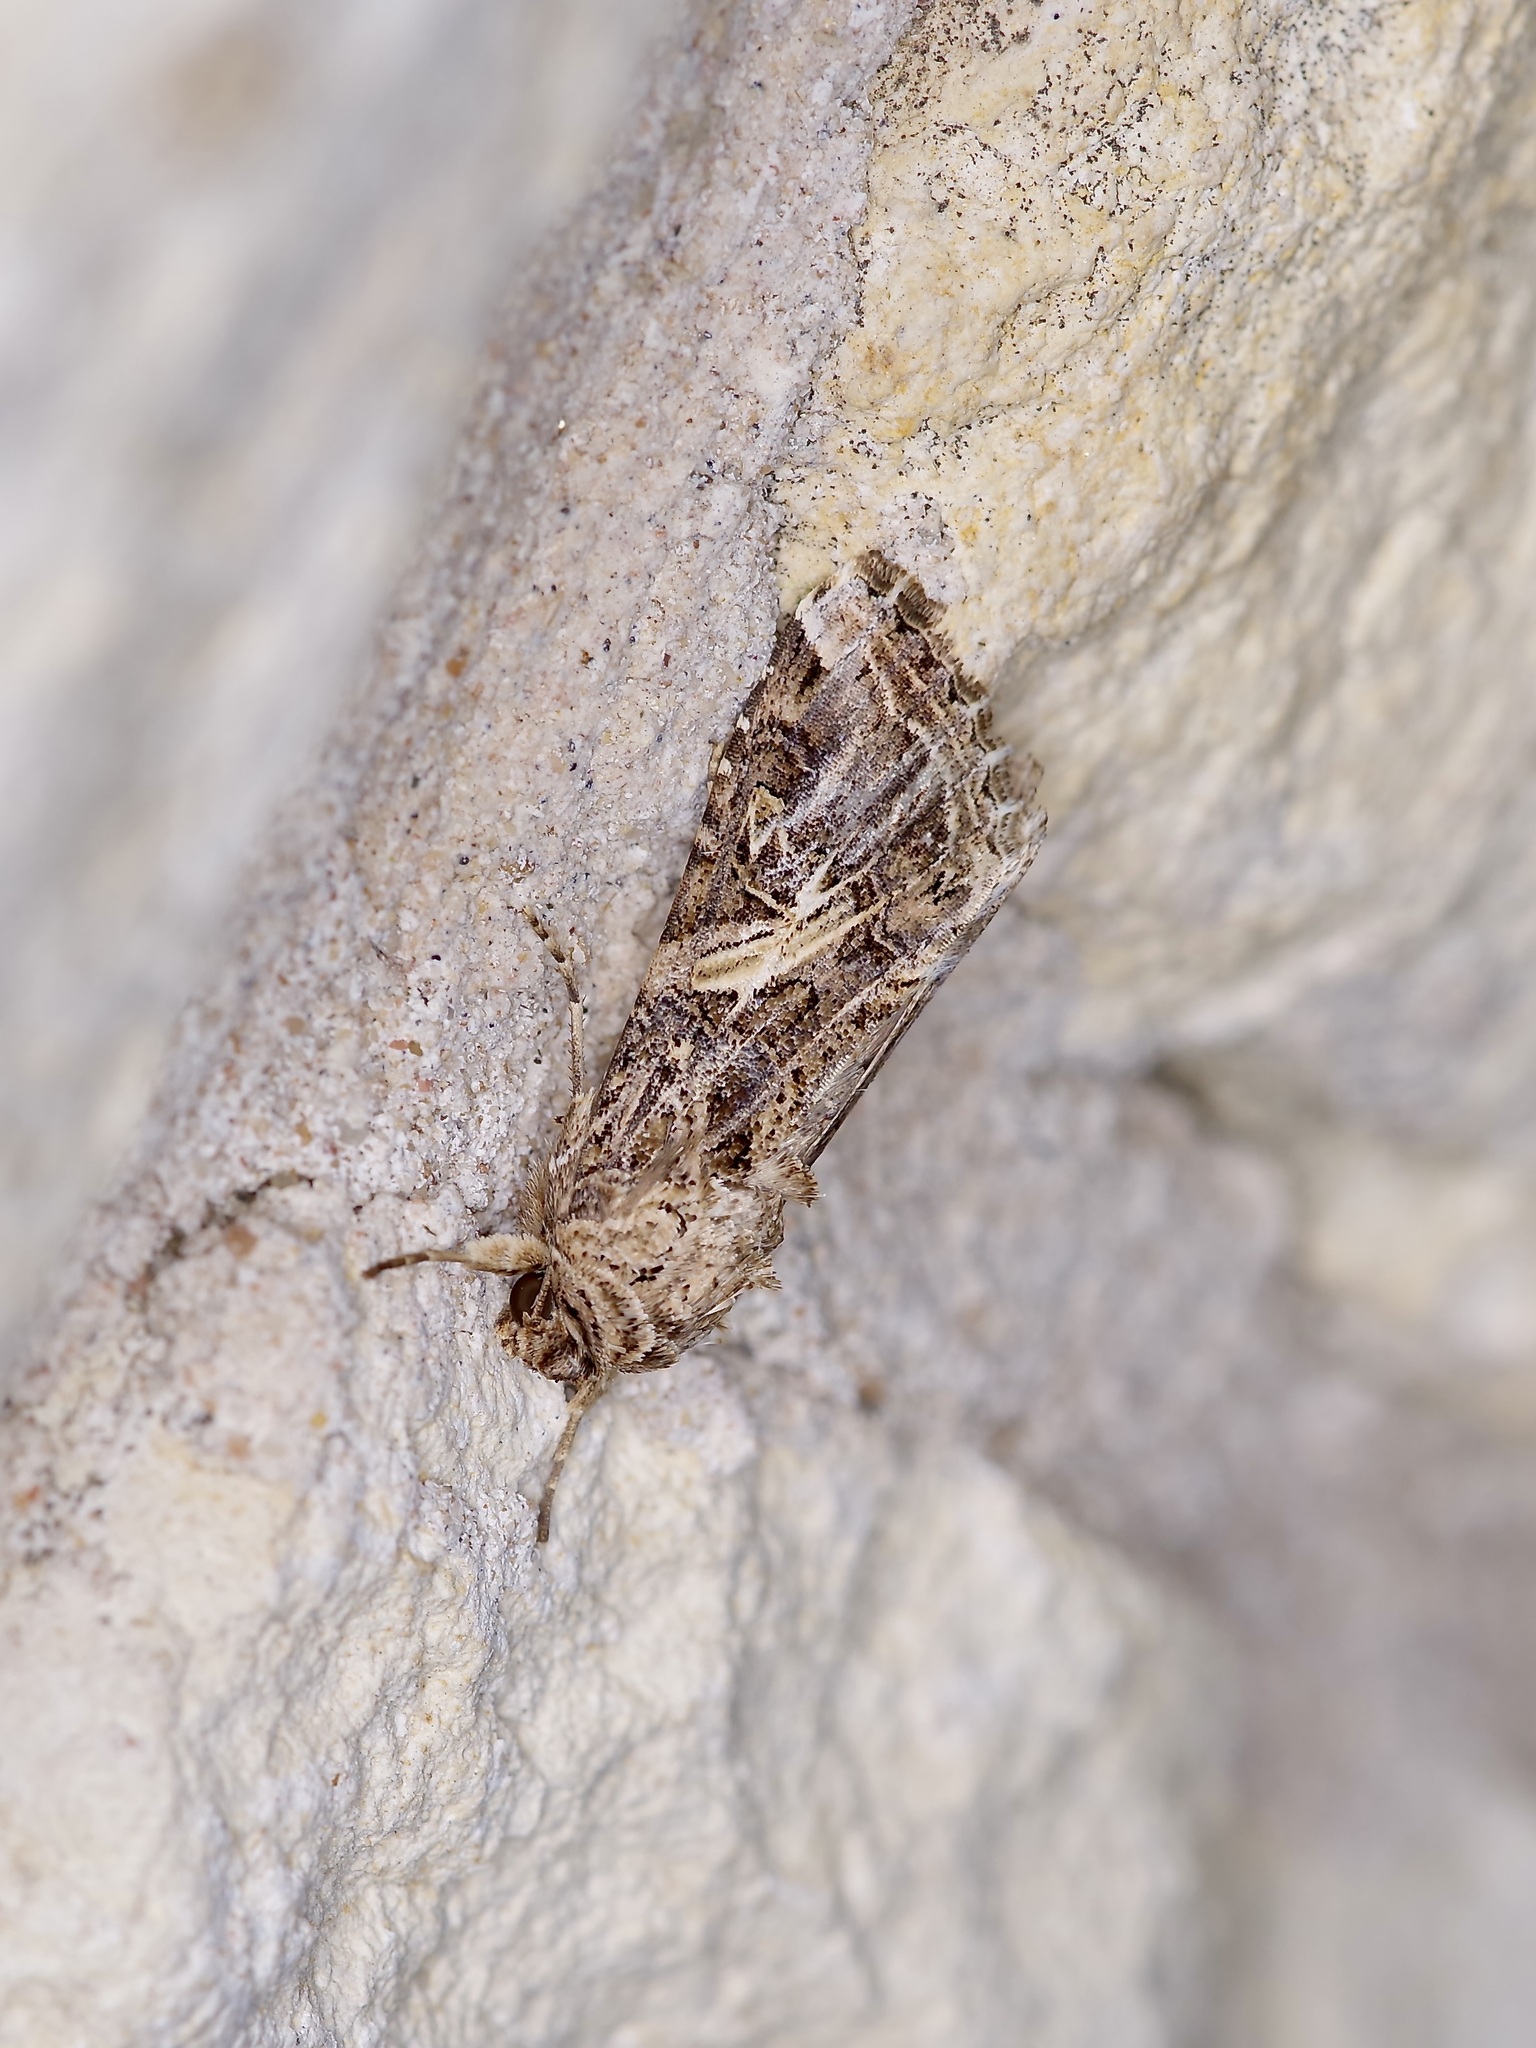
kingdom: Animalia
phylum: Arthropoda
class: Insecta
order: Lepidoptera
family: Noctuidae
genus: Spodoptera
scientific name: Spodoptera ornithogalli
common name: Yellow-striped armyworm
